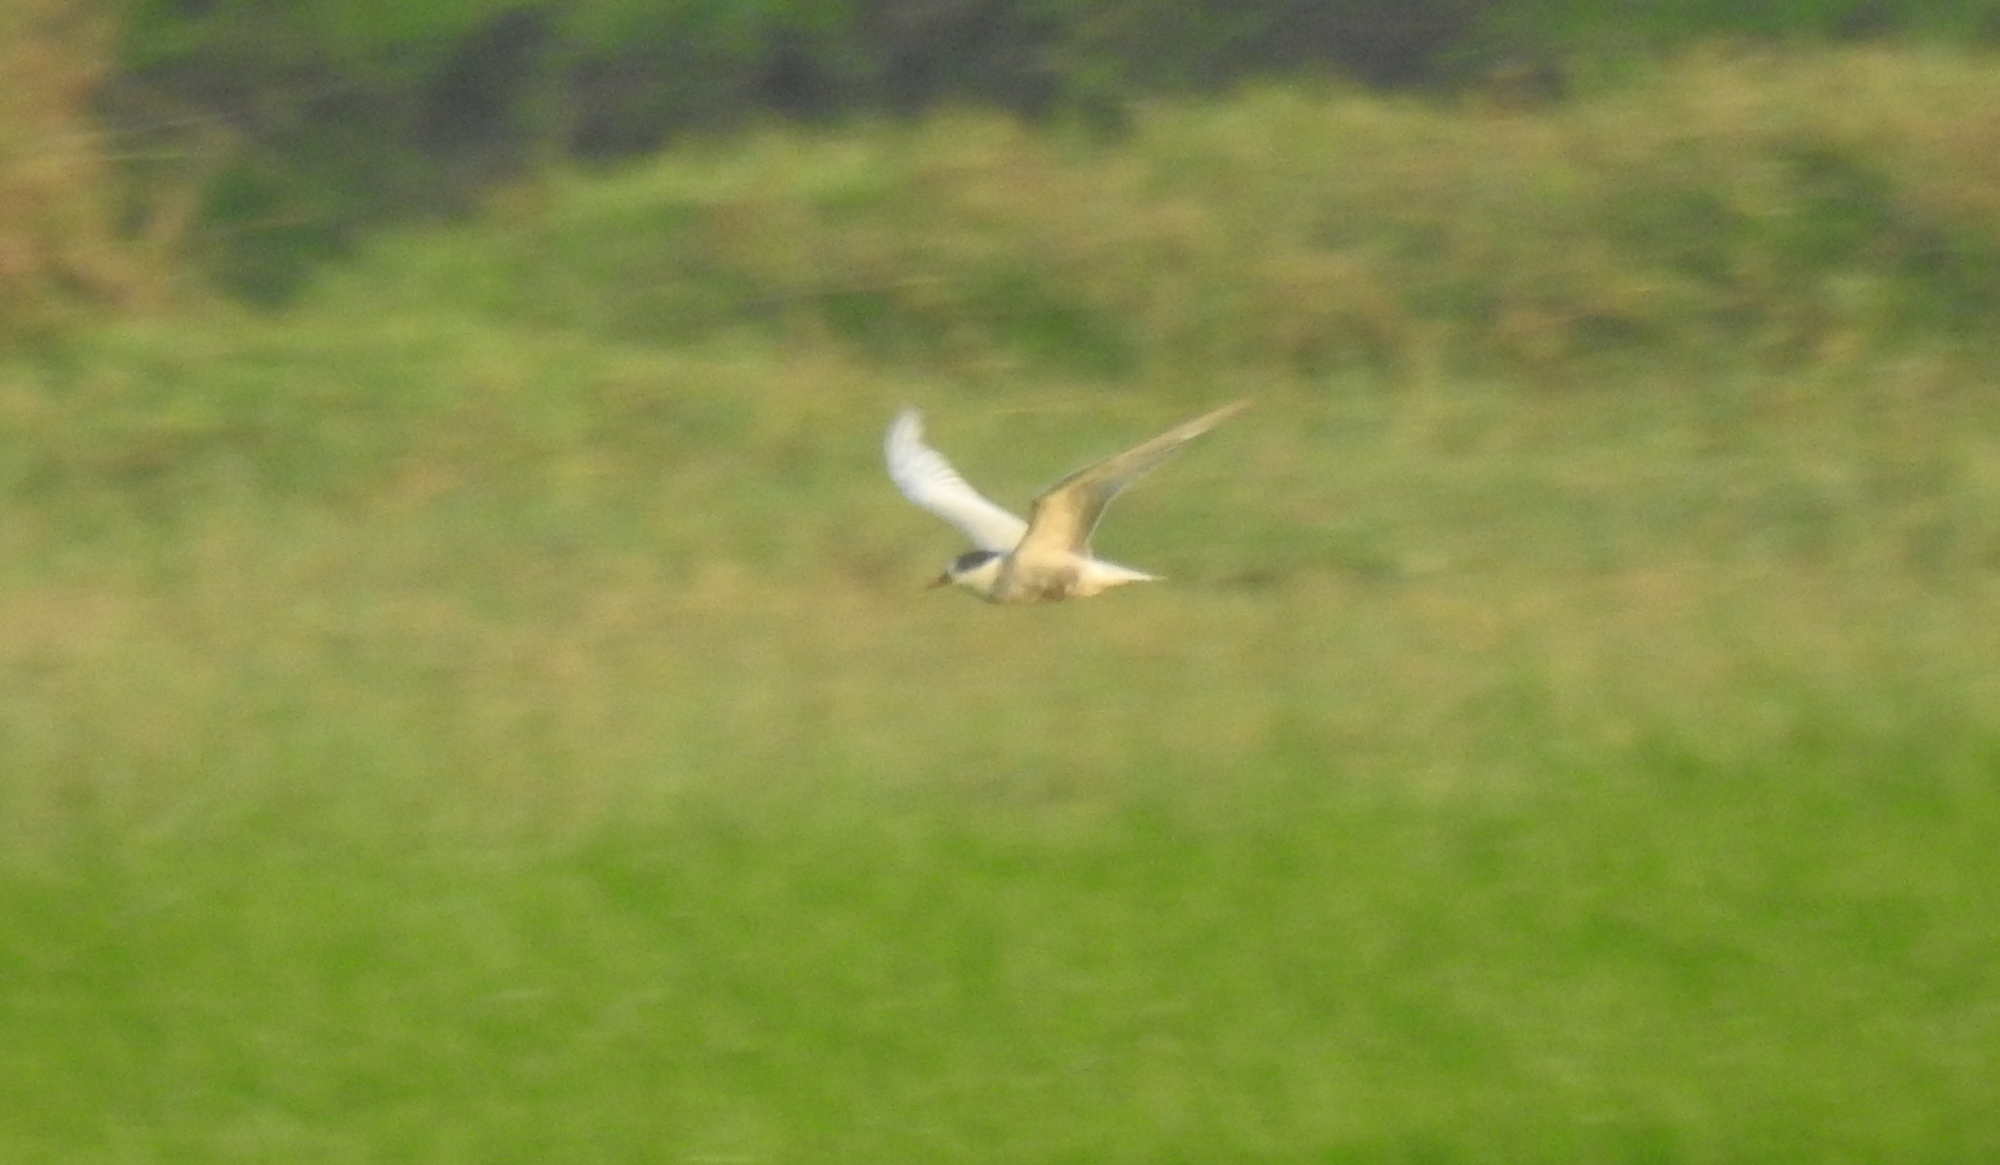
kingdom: Animalia
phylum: Chordata
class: Aves
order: Charadriiformes
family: Laridae
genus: Chlidonias
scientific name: Chlidonias hybrida
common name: Whiskered tern
